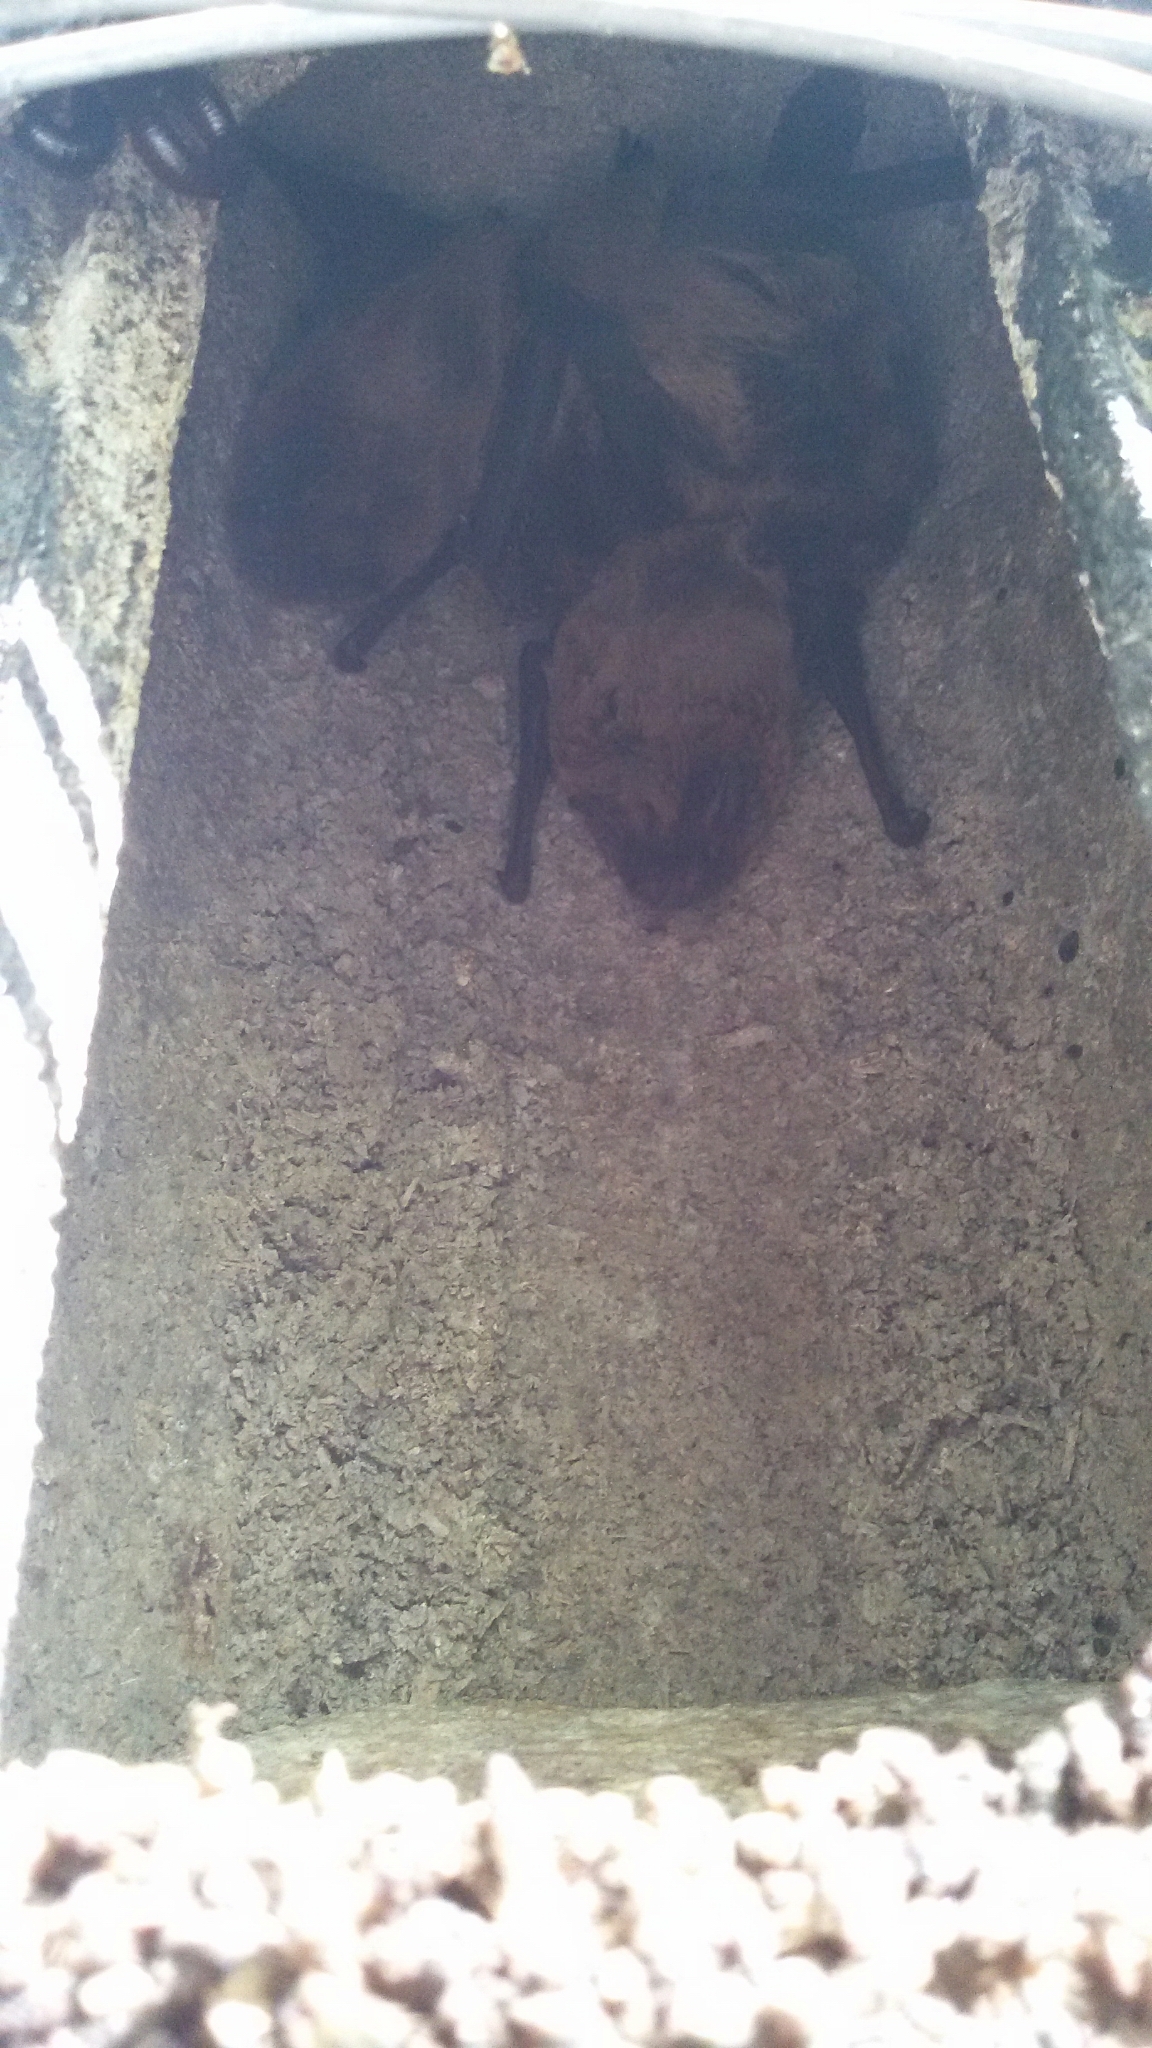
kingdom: Animalia
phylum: Chordata
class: Mammalia
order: Chiroptera
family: Vespertilionidae
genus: Nyctalus
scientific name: Nyctalus leisleri
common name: Lesser noctule
